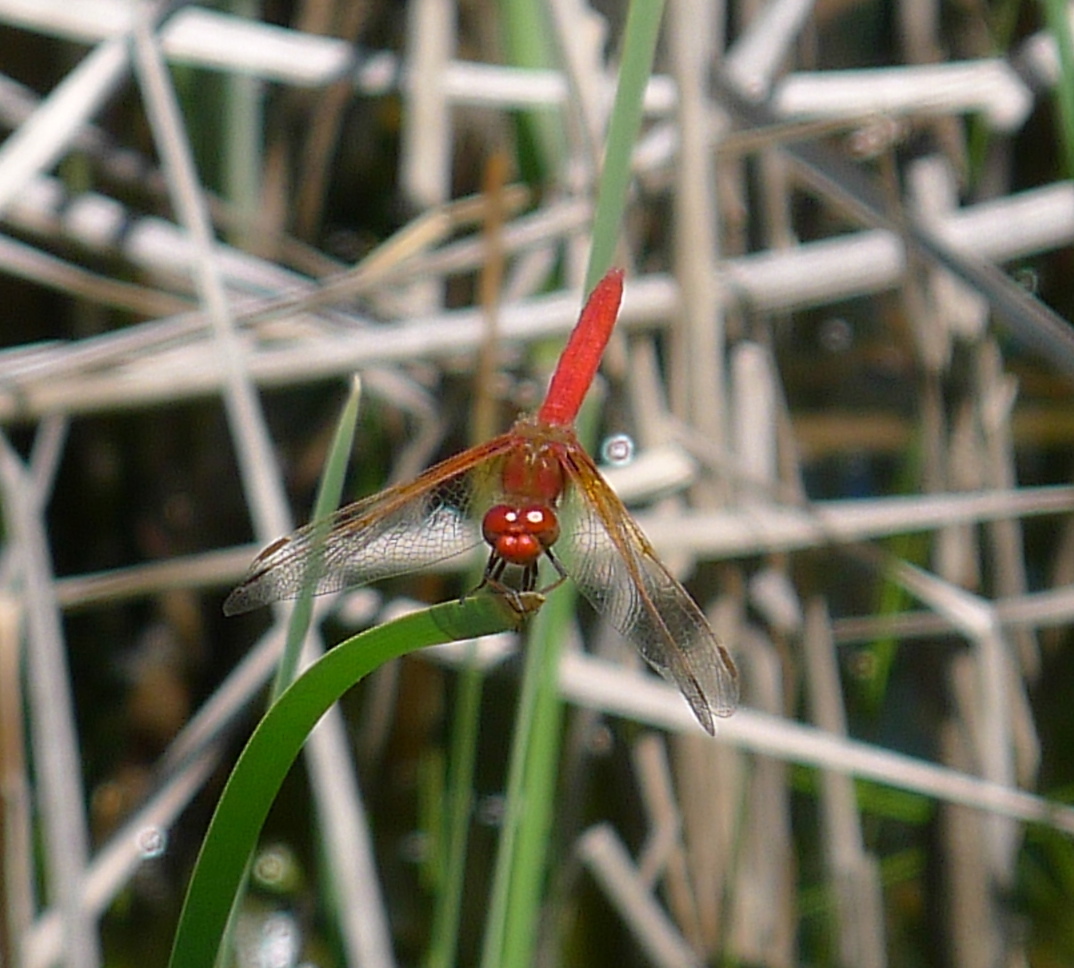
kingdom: Animalia
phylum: Arthropoda
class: Insecta
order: Odonata
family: Libellulidae
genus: Sympetrum
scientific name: Sympetrum illotum
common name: Cardinal meadowhawk
